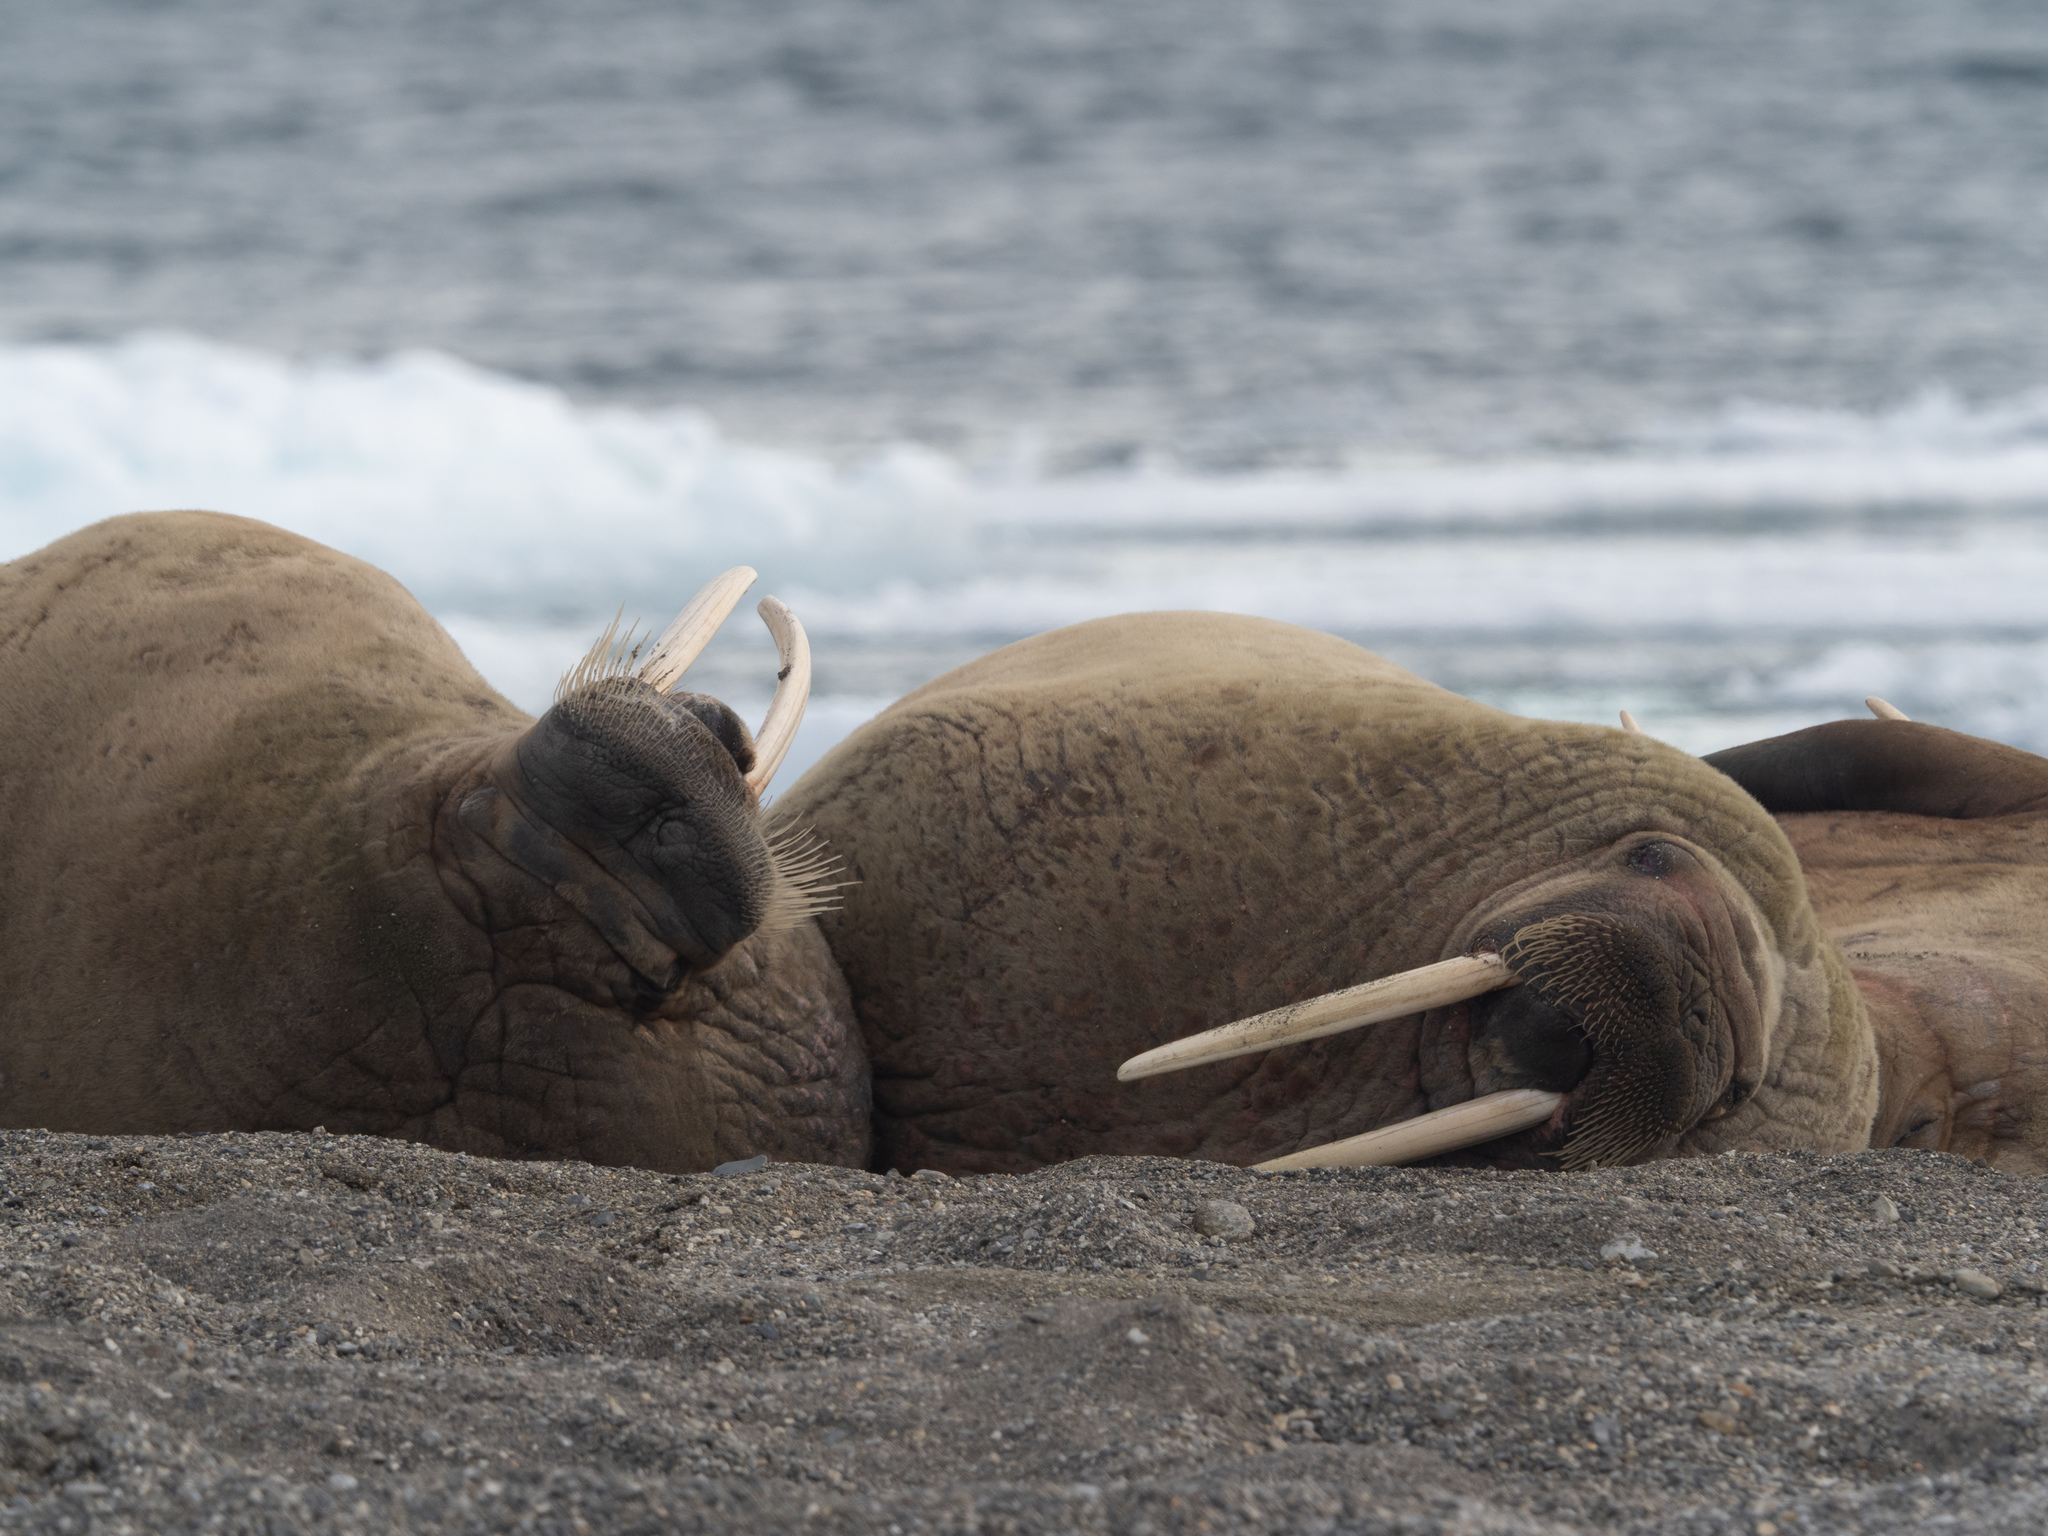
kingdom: Animalia
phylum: Chordata
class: Mammalia
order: Carnivora
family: Odobenidae
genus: Odobenus
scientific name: Odobenus rosmarus
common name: Walrus
